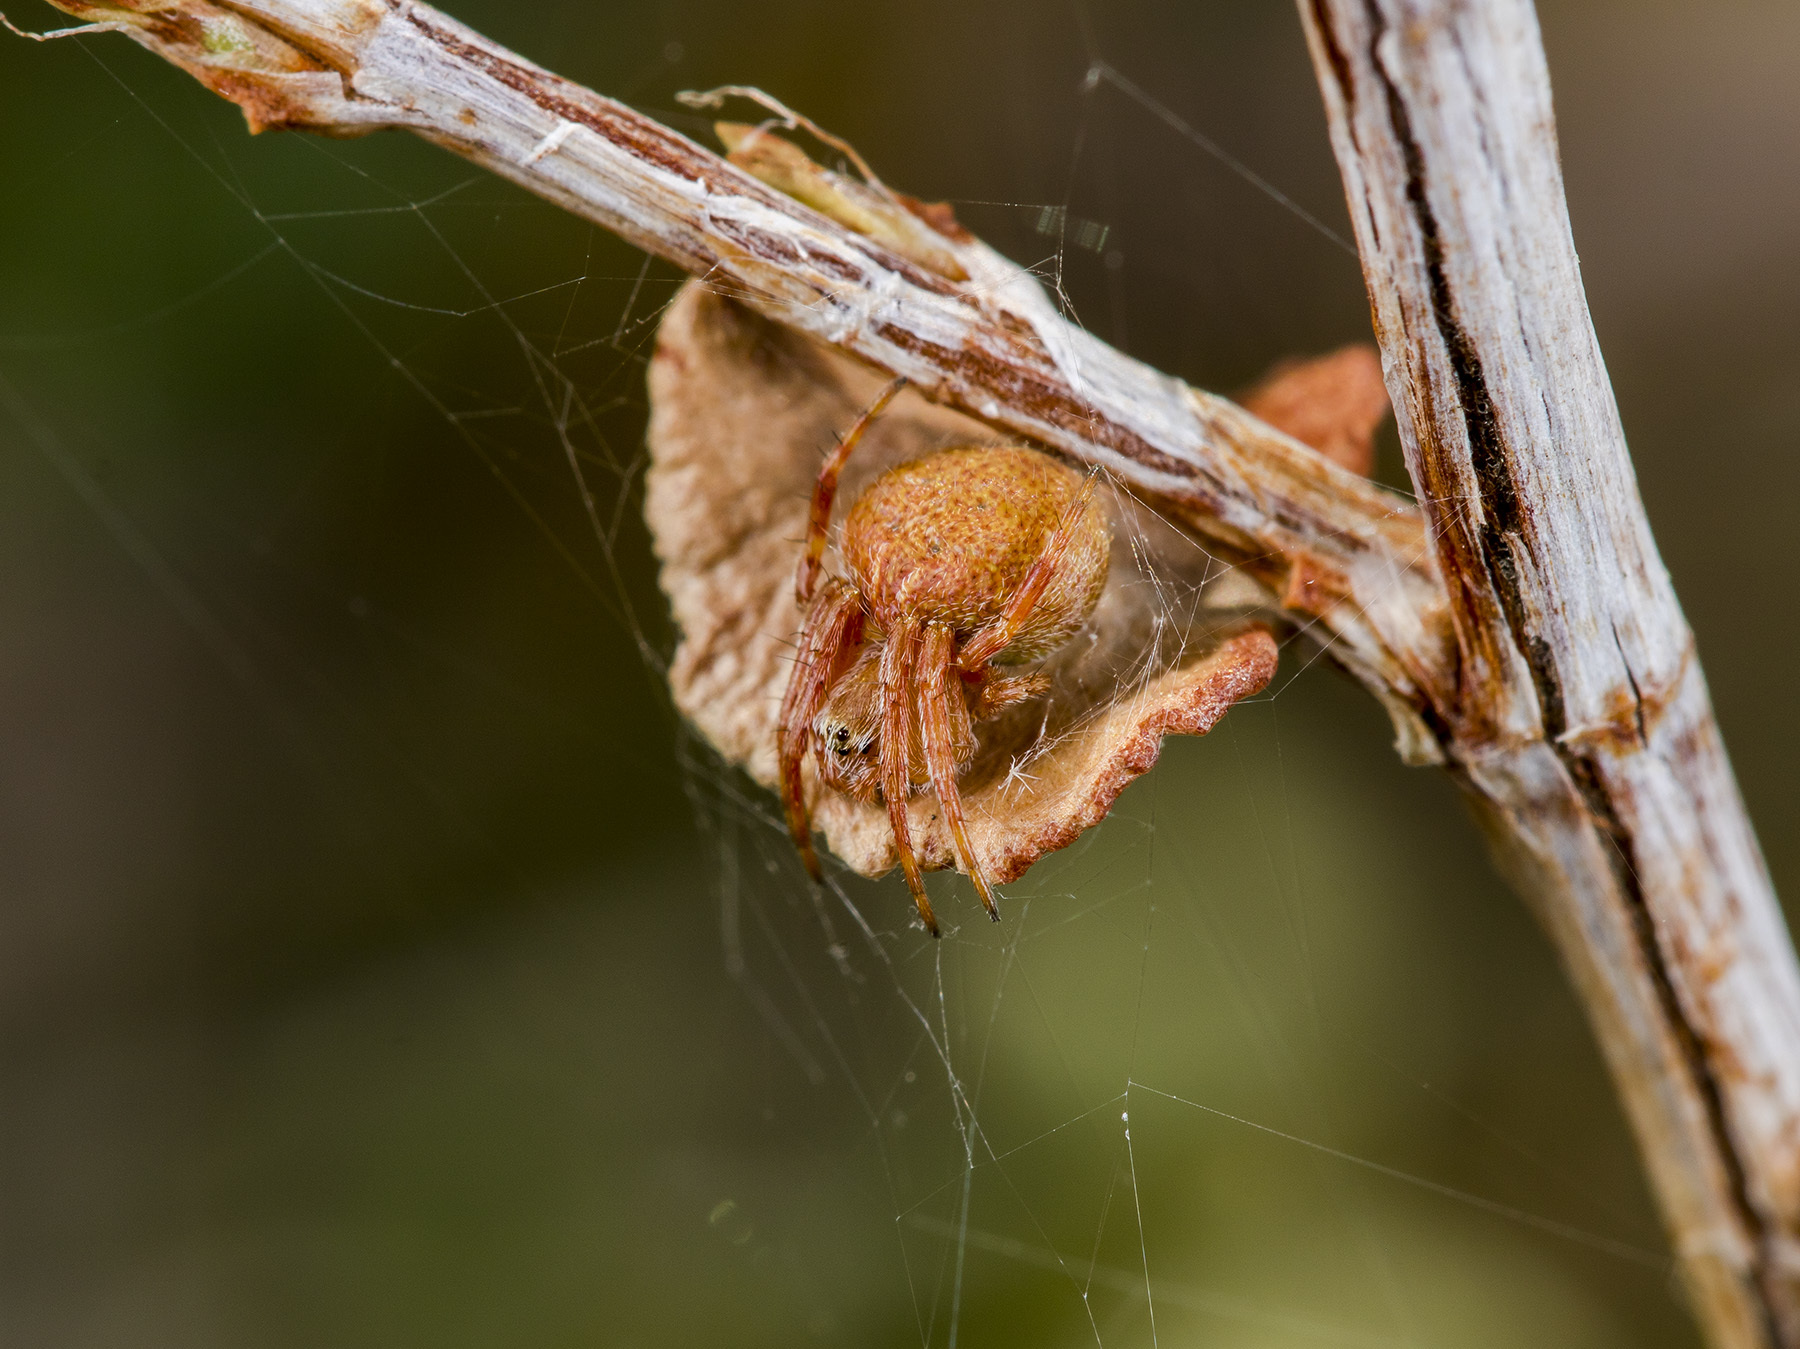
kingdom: Animalia
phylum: Arthropoda
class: Arachnida
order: Araneae
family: Araneidae
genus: Agalenatea
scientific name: Agalenatea redii
